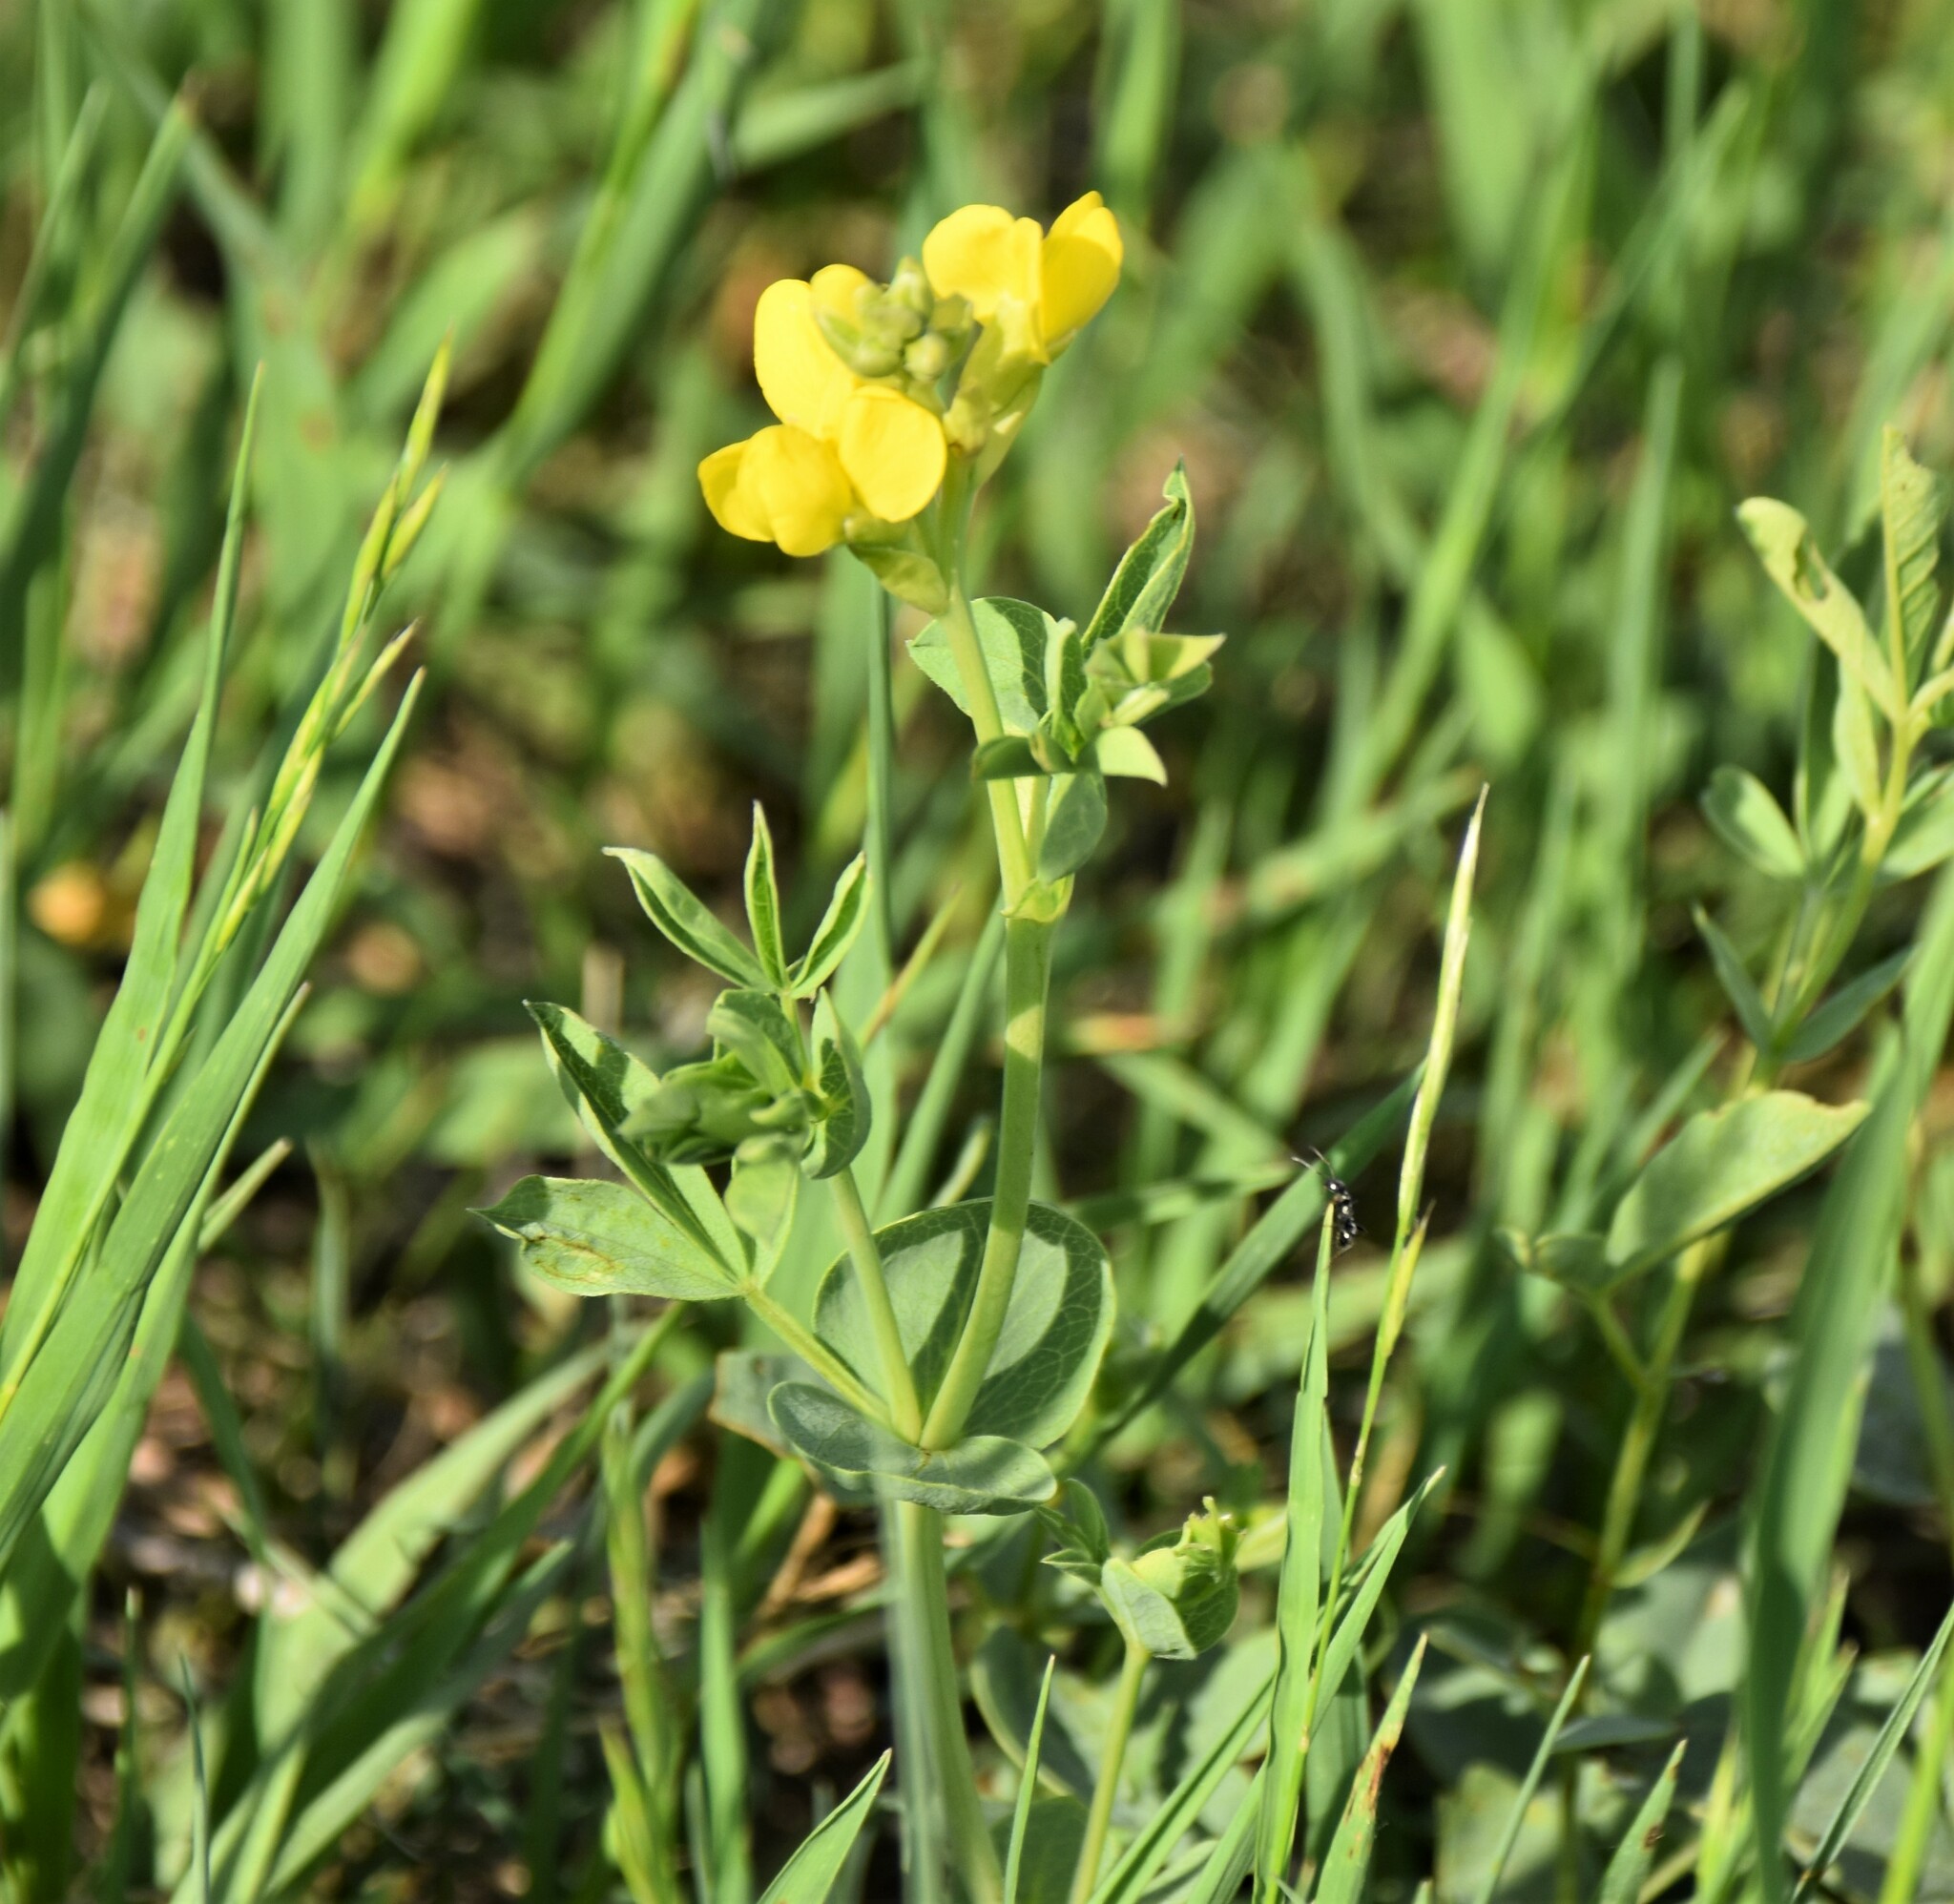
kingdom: Plantae
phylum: Tracheophyta
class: Magnoliopsida
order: Fabales
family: Fabaceae
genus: Thermopsis
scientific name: Thermopsis rhombifolia
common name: Circle-pod-pea
